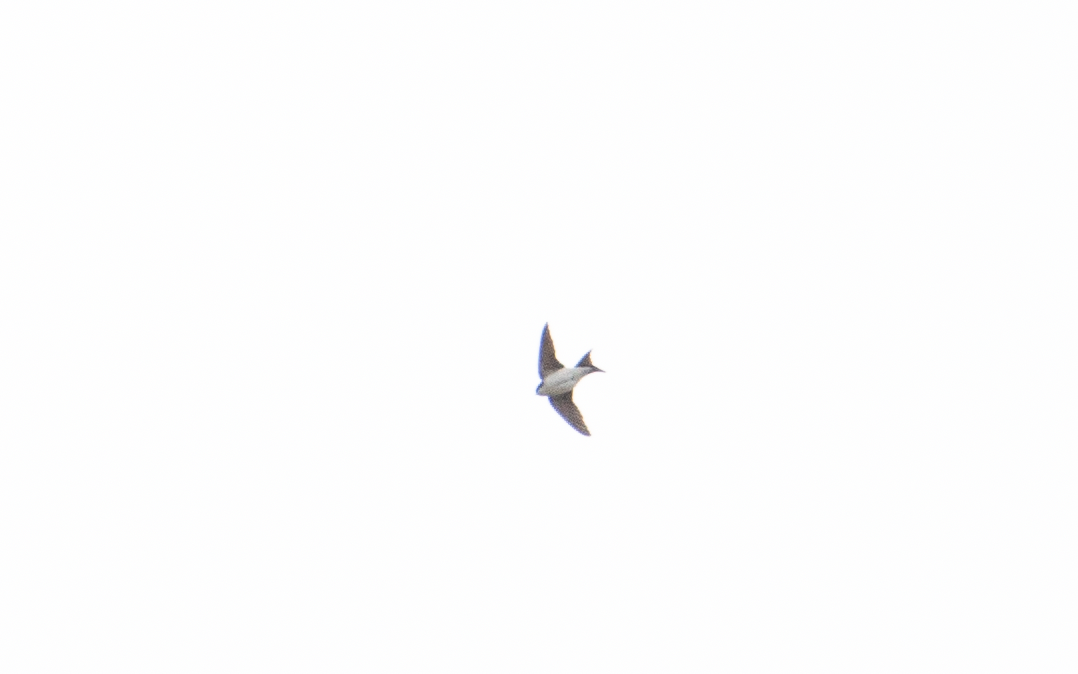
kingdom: Animalia
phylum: Chordata
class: Aves
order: Passeriformes
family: Hirundinidae
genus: Delichon
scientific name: Delichon urbicum
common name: Common house martin
